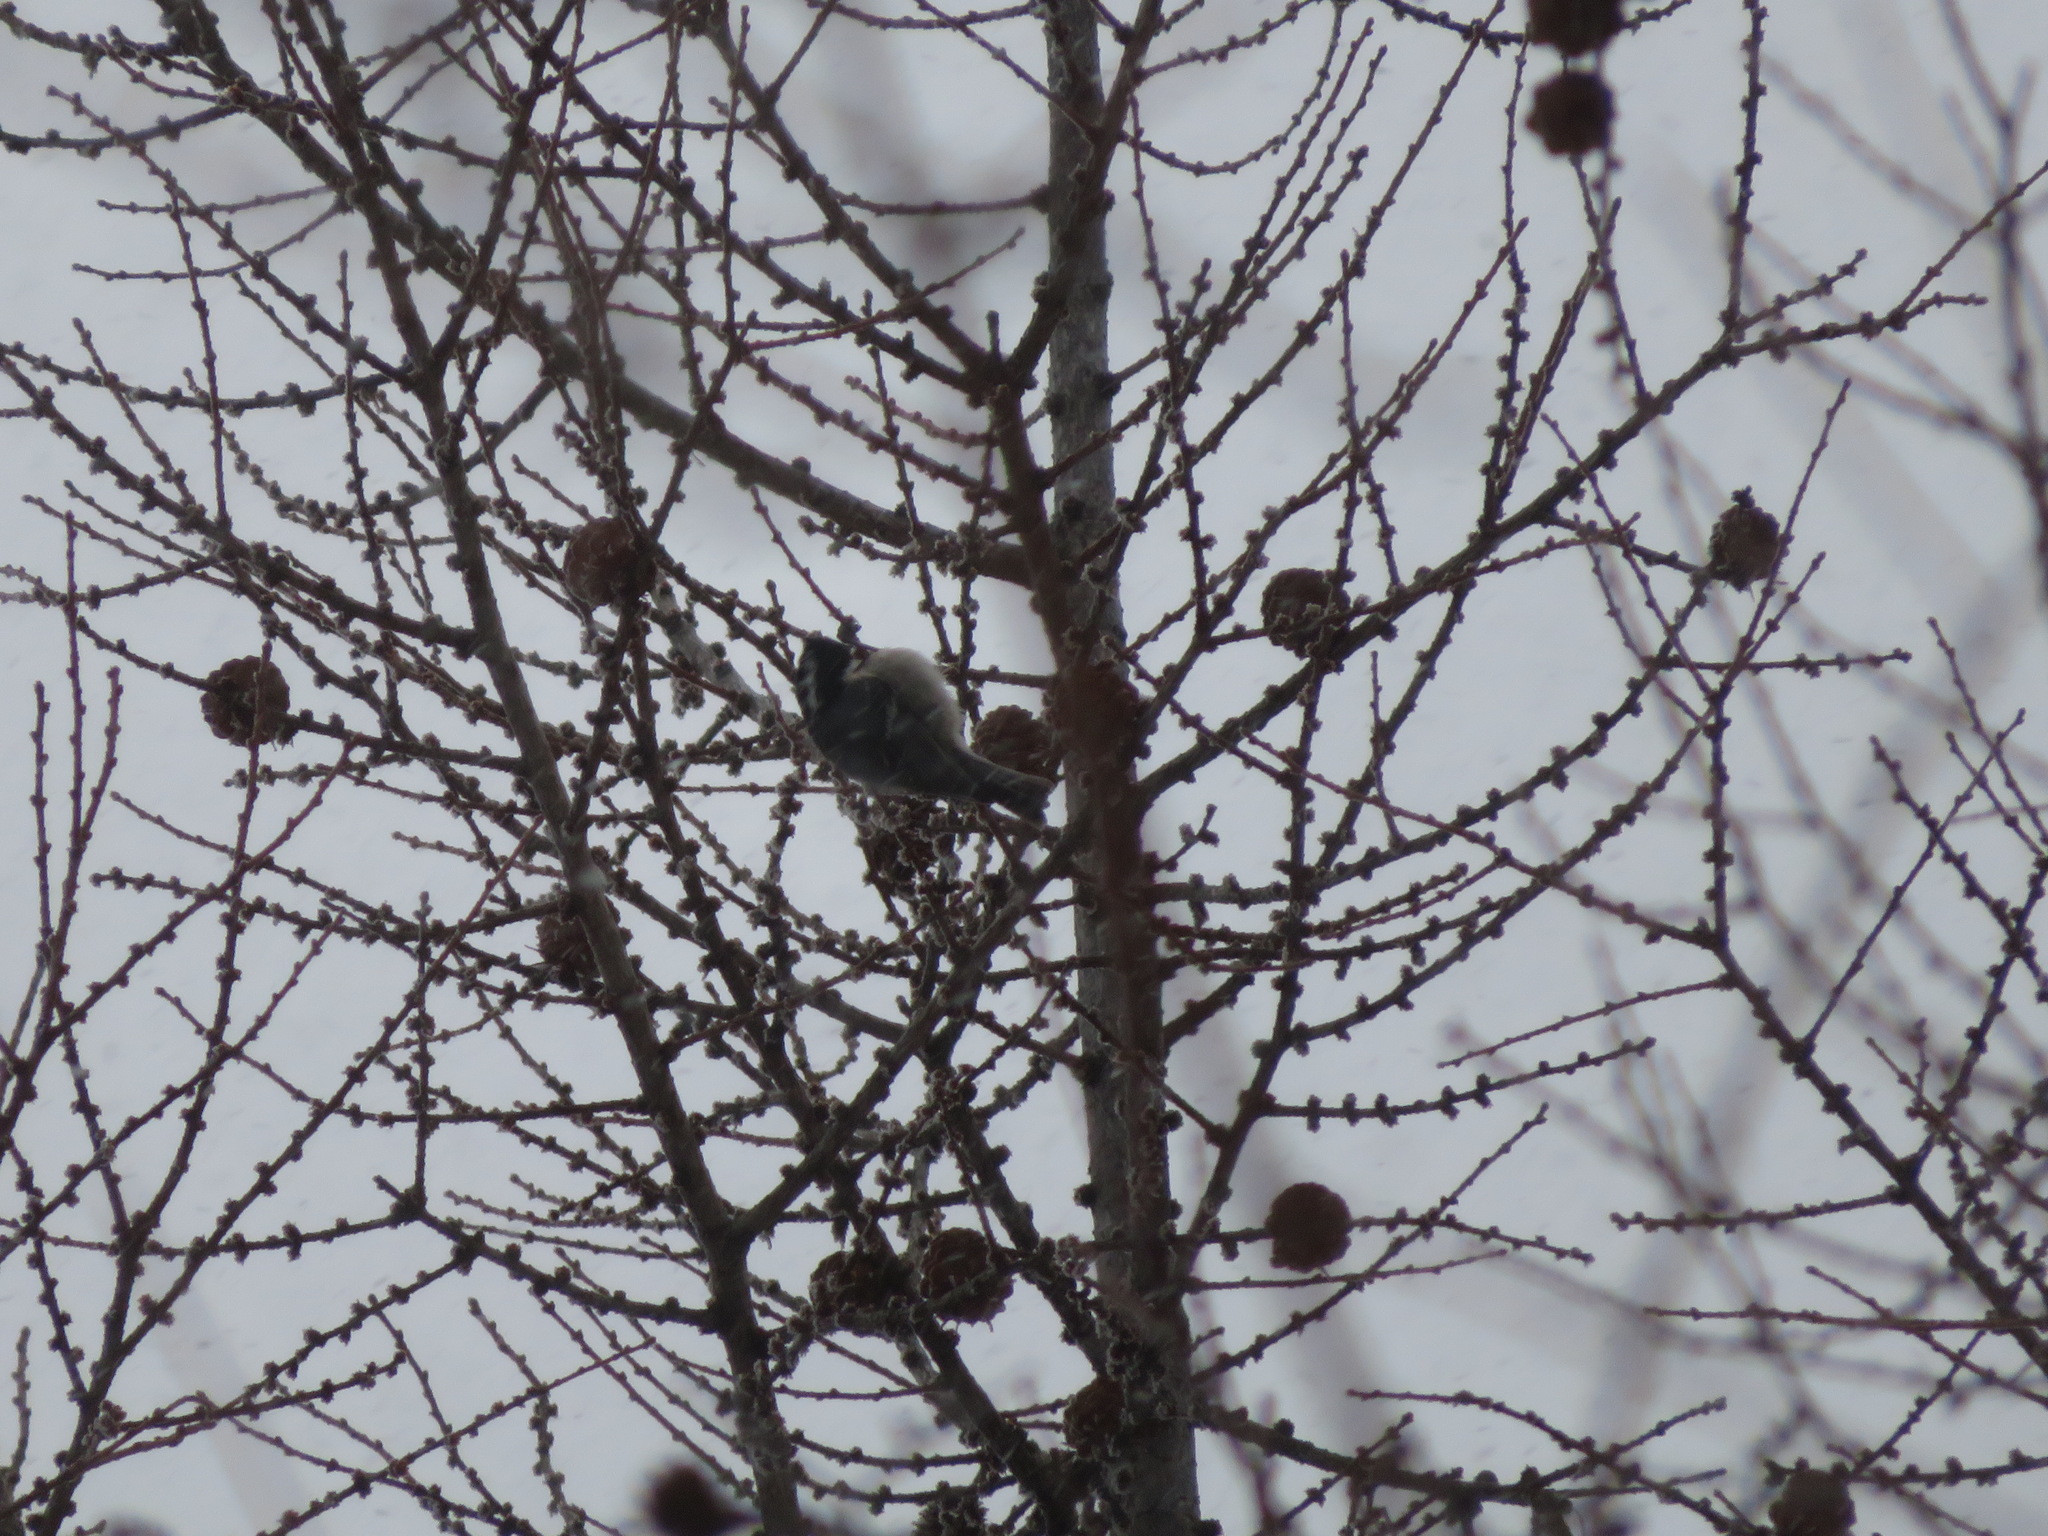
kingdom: Animalia
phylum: Chordata
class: Aves
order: Passeriformes
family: Paridae
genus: Periparus
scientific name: Periparus ater
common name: Coal tit
